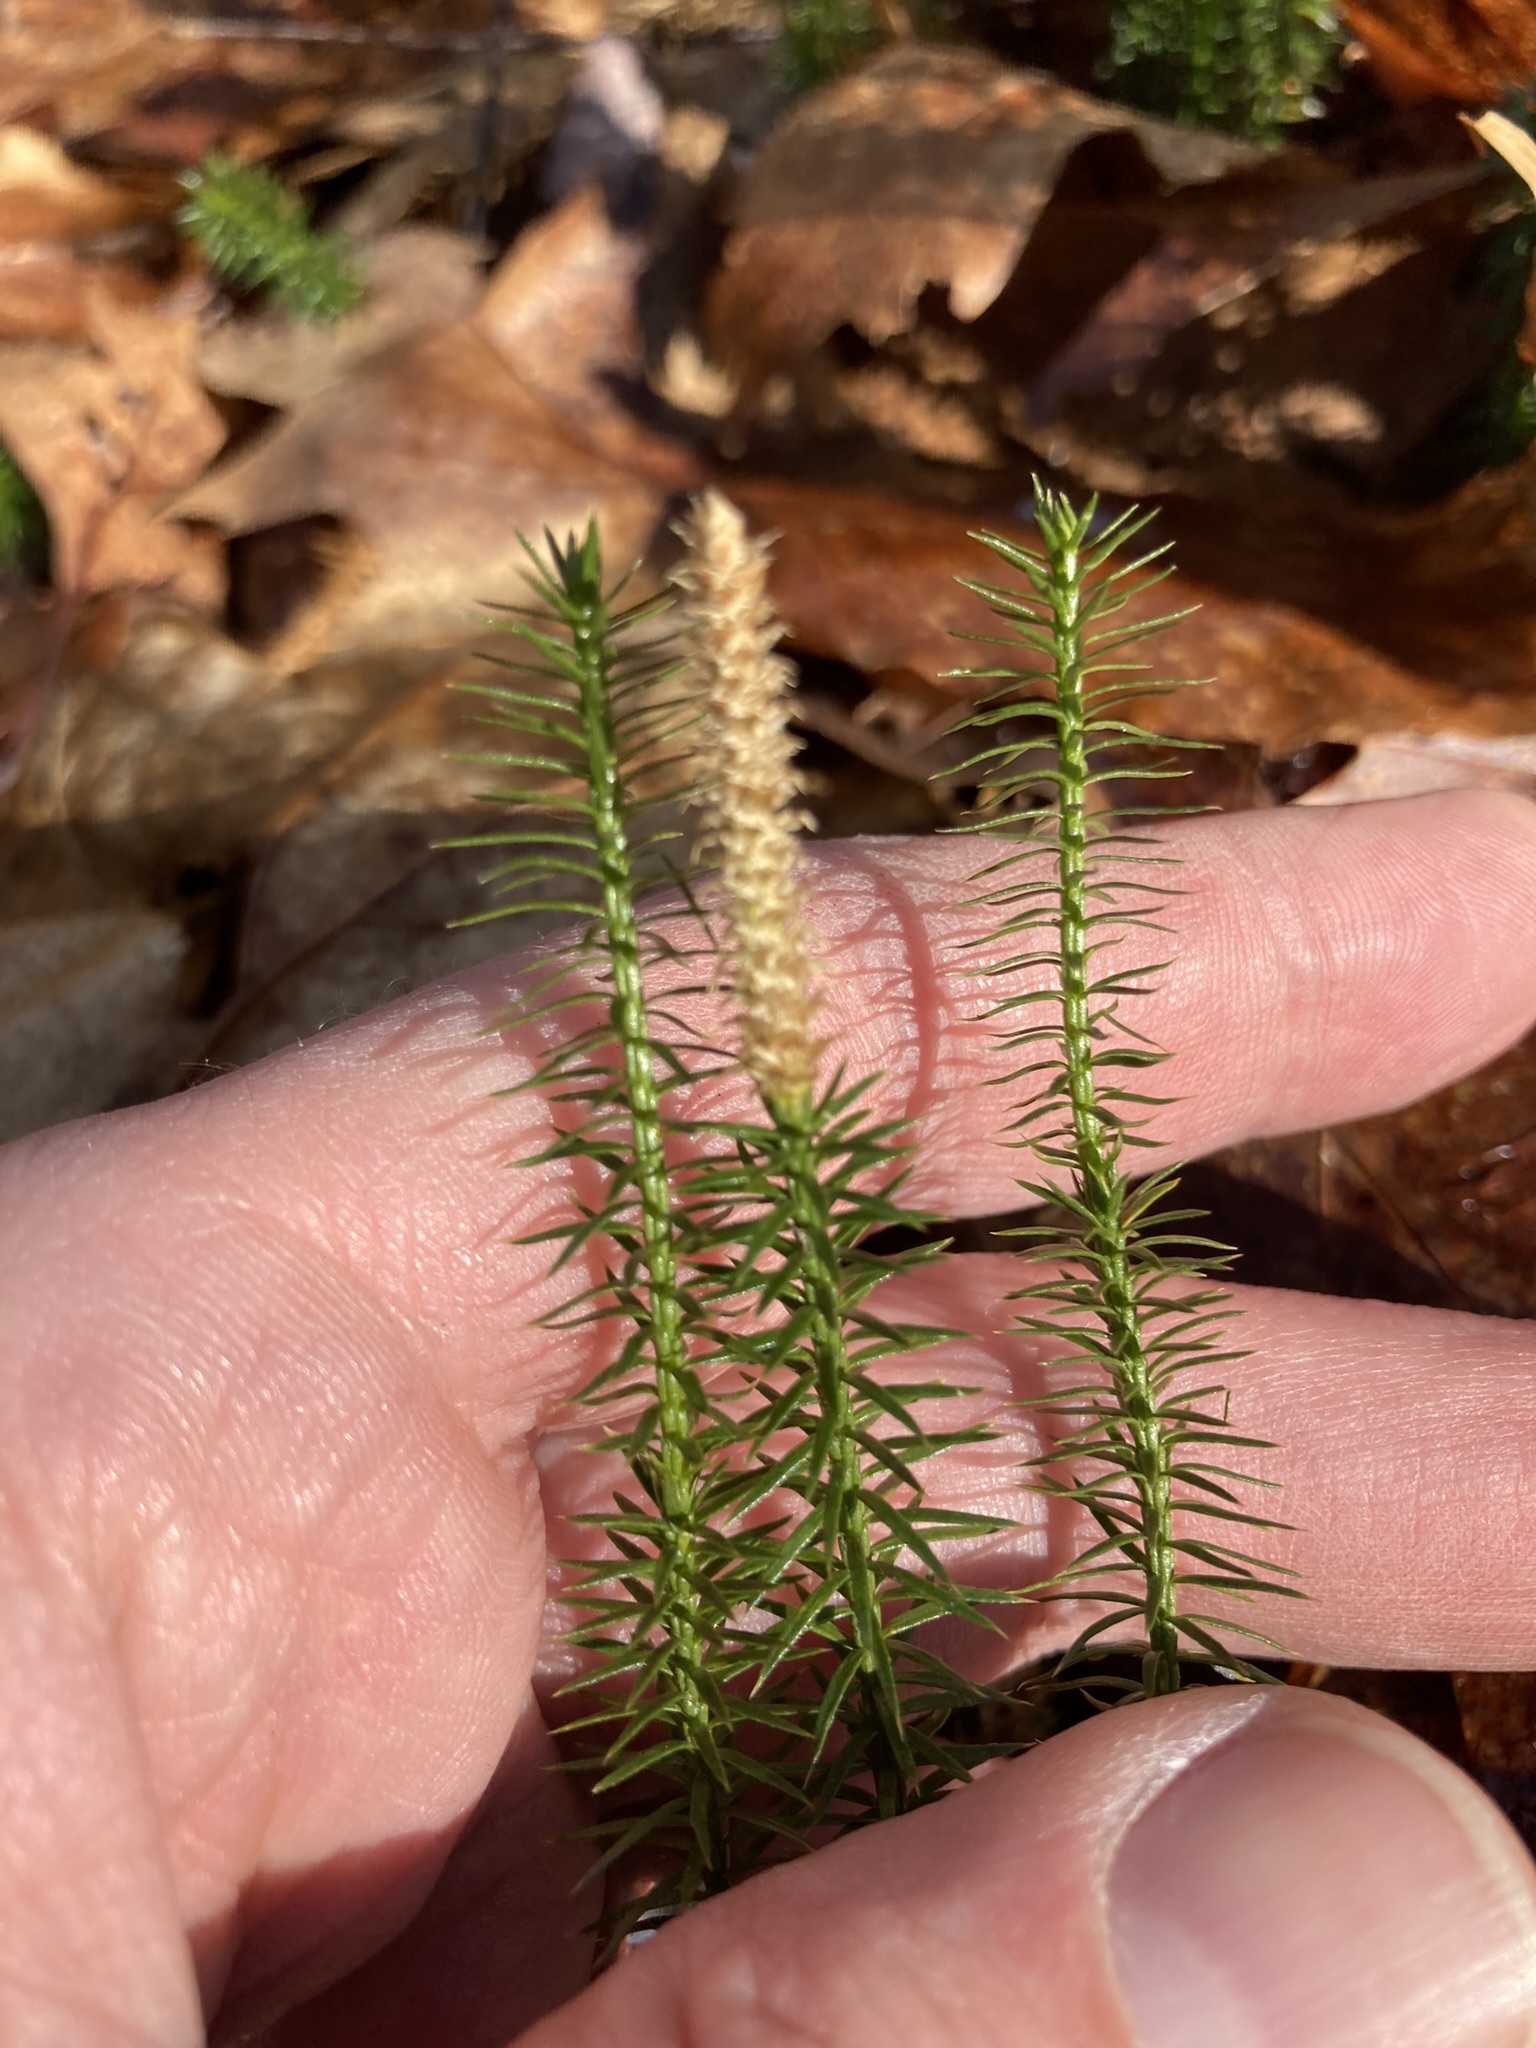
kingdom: Plantae
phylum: Tracheophyta
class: Lycopodiopsida
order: Lycopodiales
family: Lycopodiaceae
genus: Spinulum
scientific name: Spinulum annotinum
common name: Interrupted club-moss
